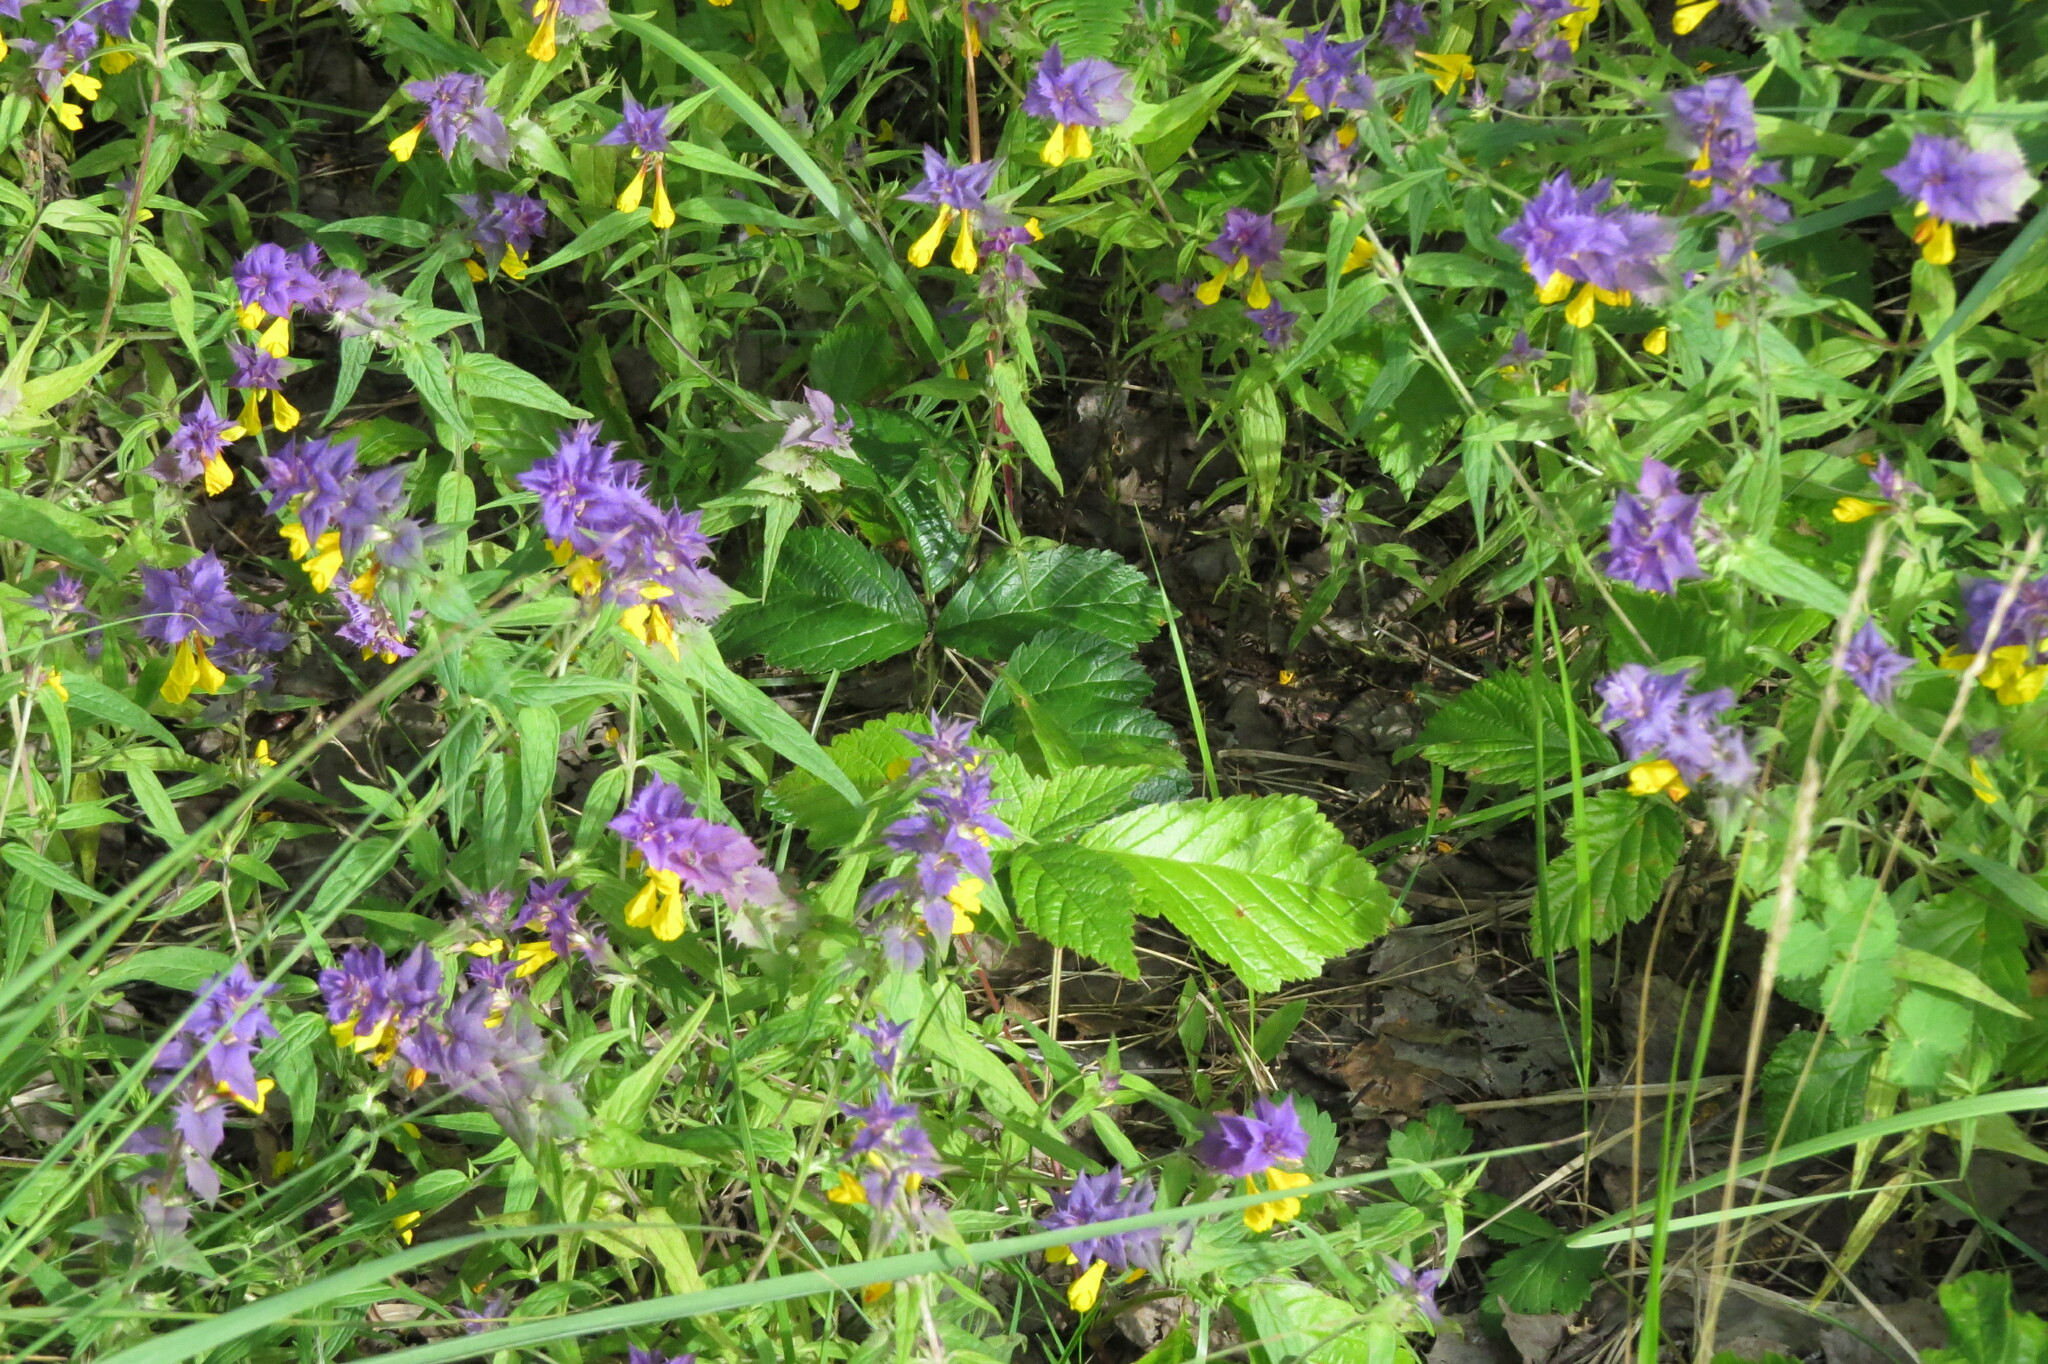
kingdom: Plantae
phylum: Tracheophyta
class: Magnoliopsida
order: Lamiales
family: Orobanchaceae
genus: Melampyrum
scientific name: Melampyrum nemorosum
